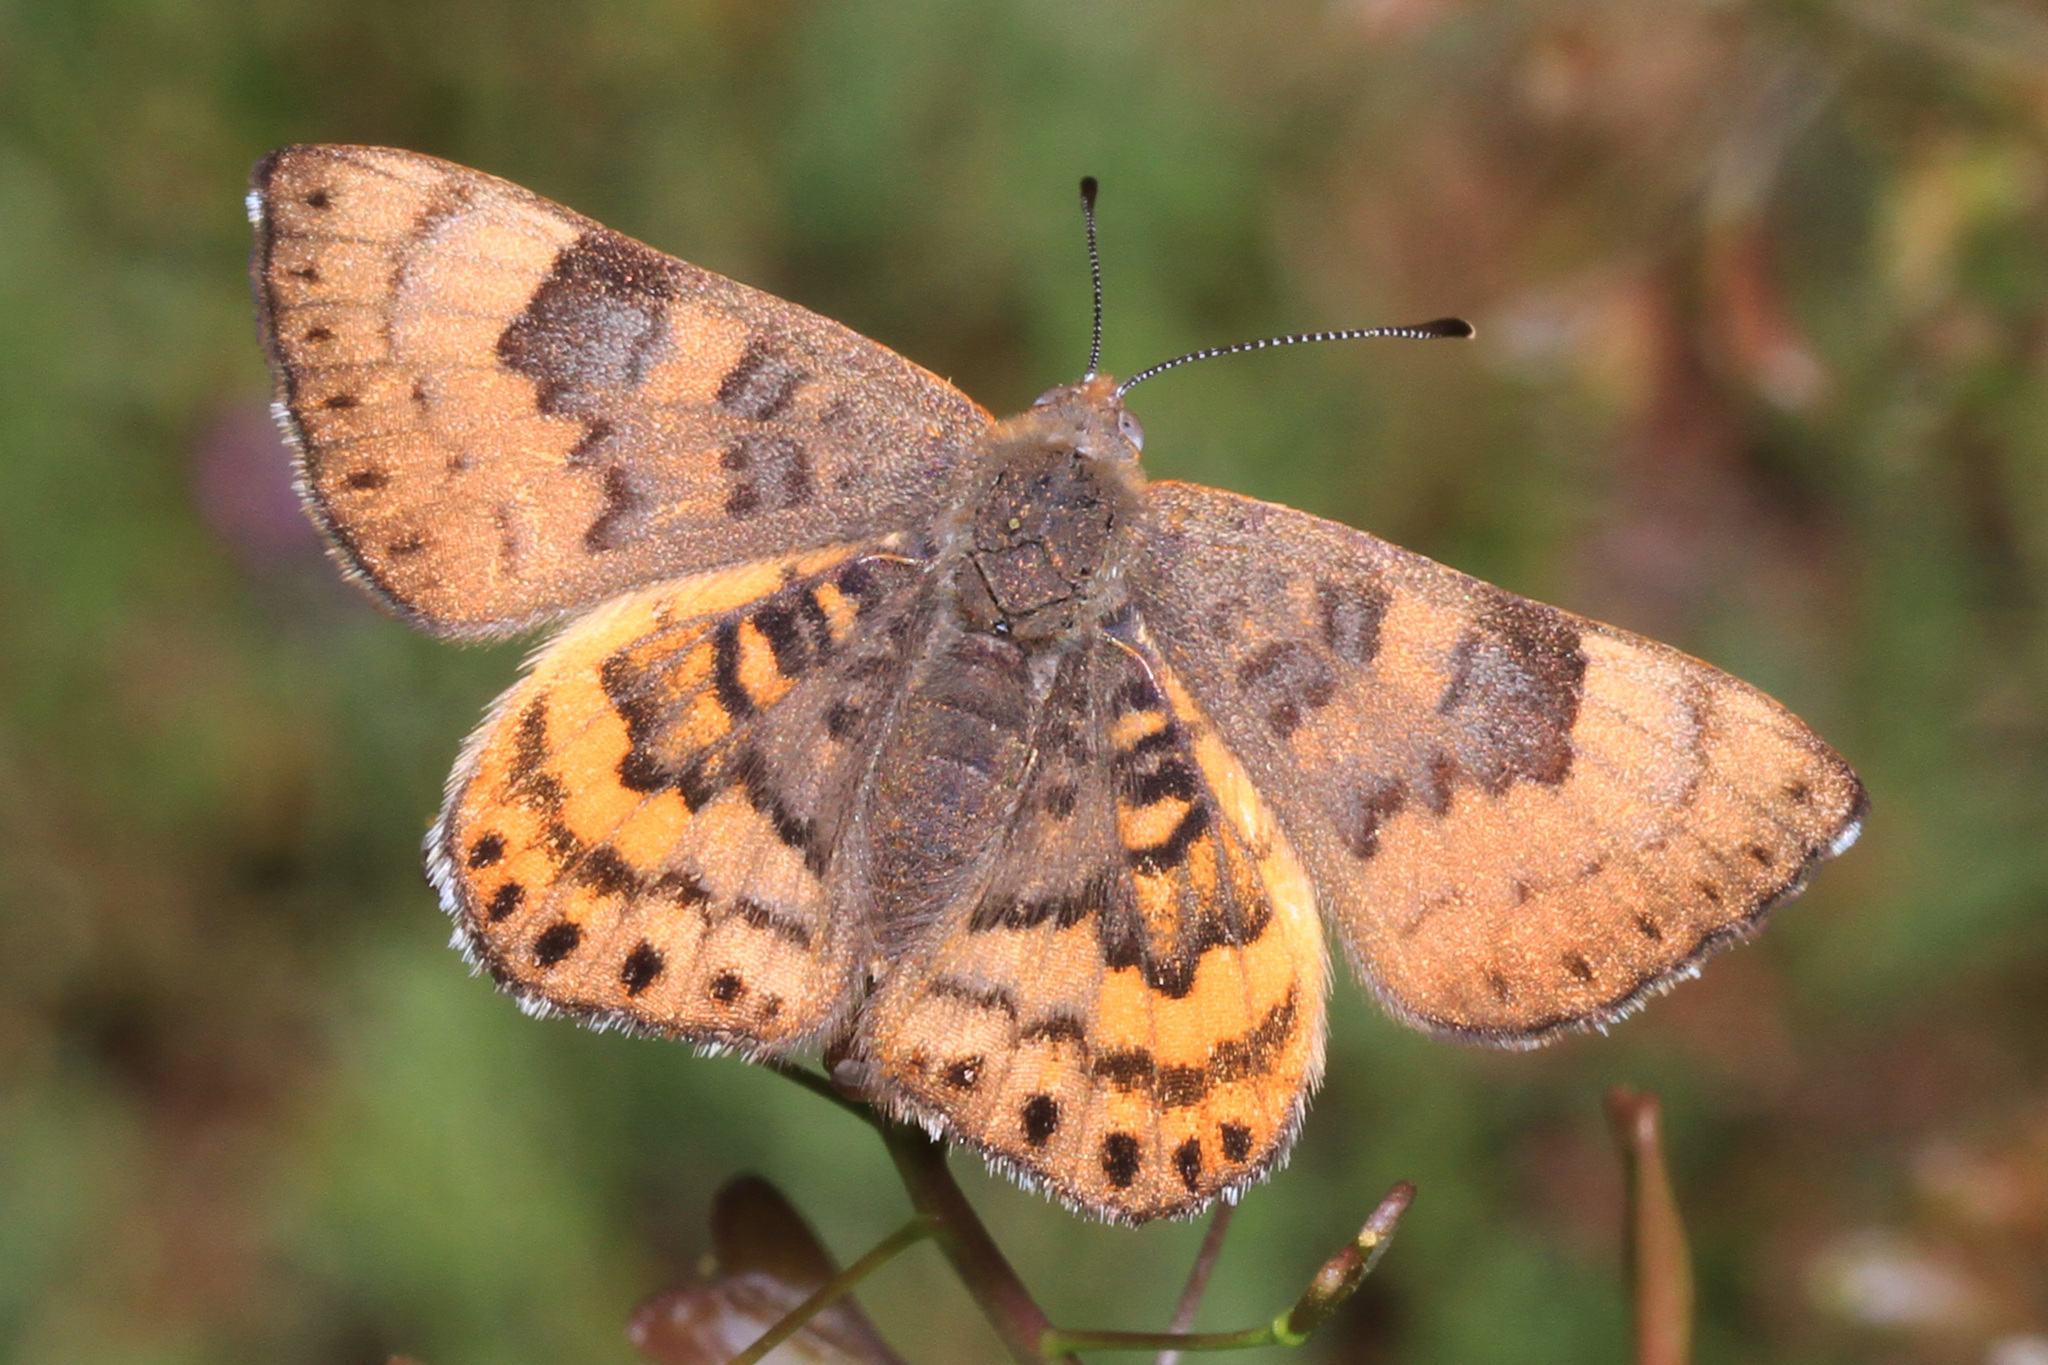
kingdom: Animalia
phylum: Arthropoda
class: Insecta
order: Lepidoptera
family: Riodinidae
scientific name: Riodinidae
